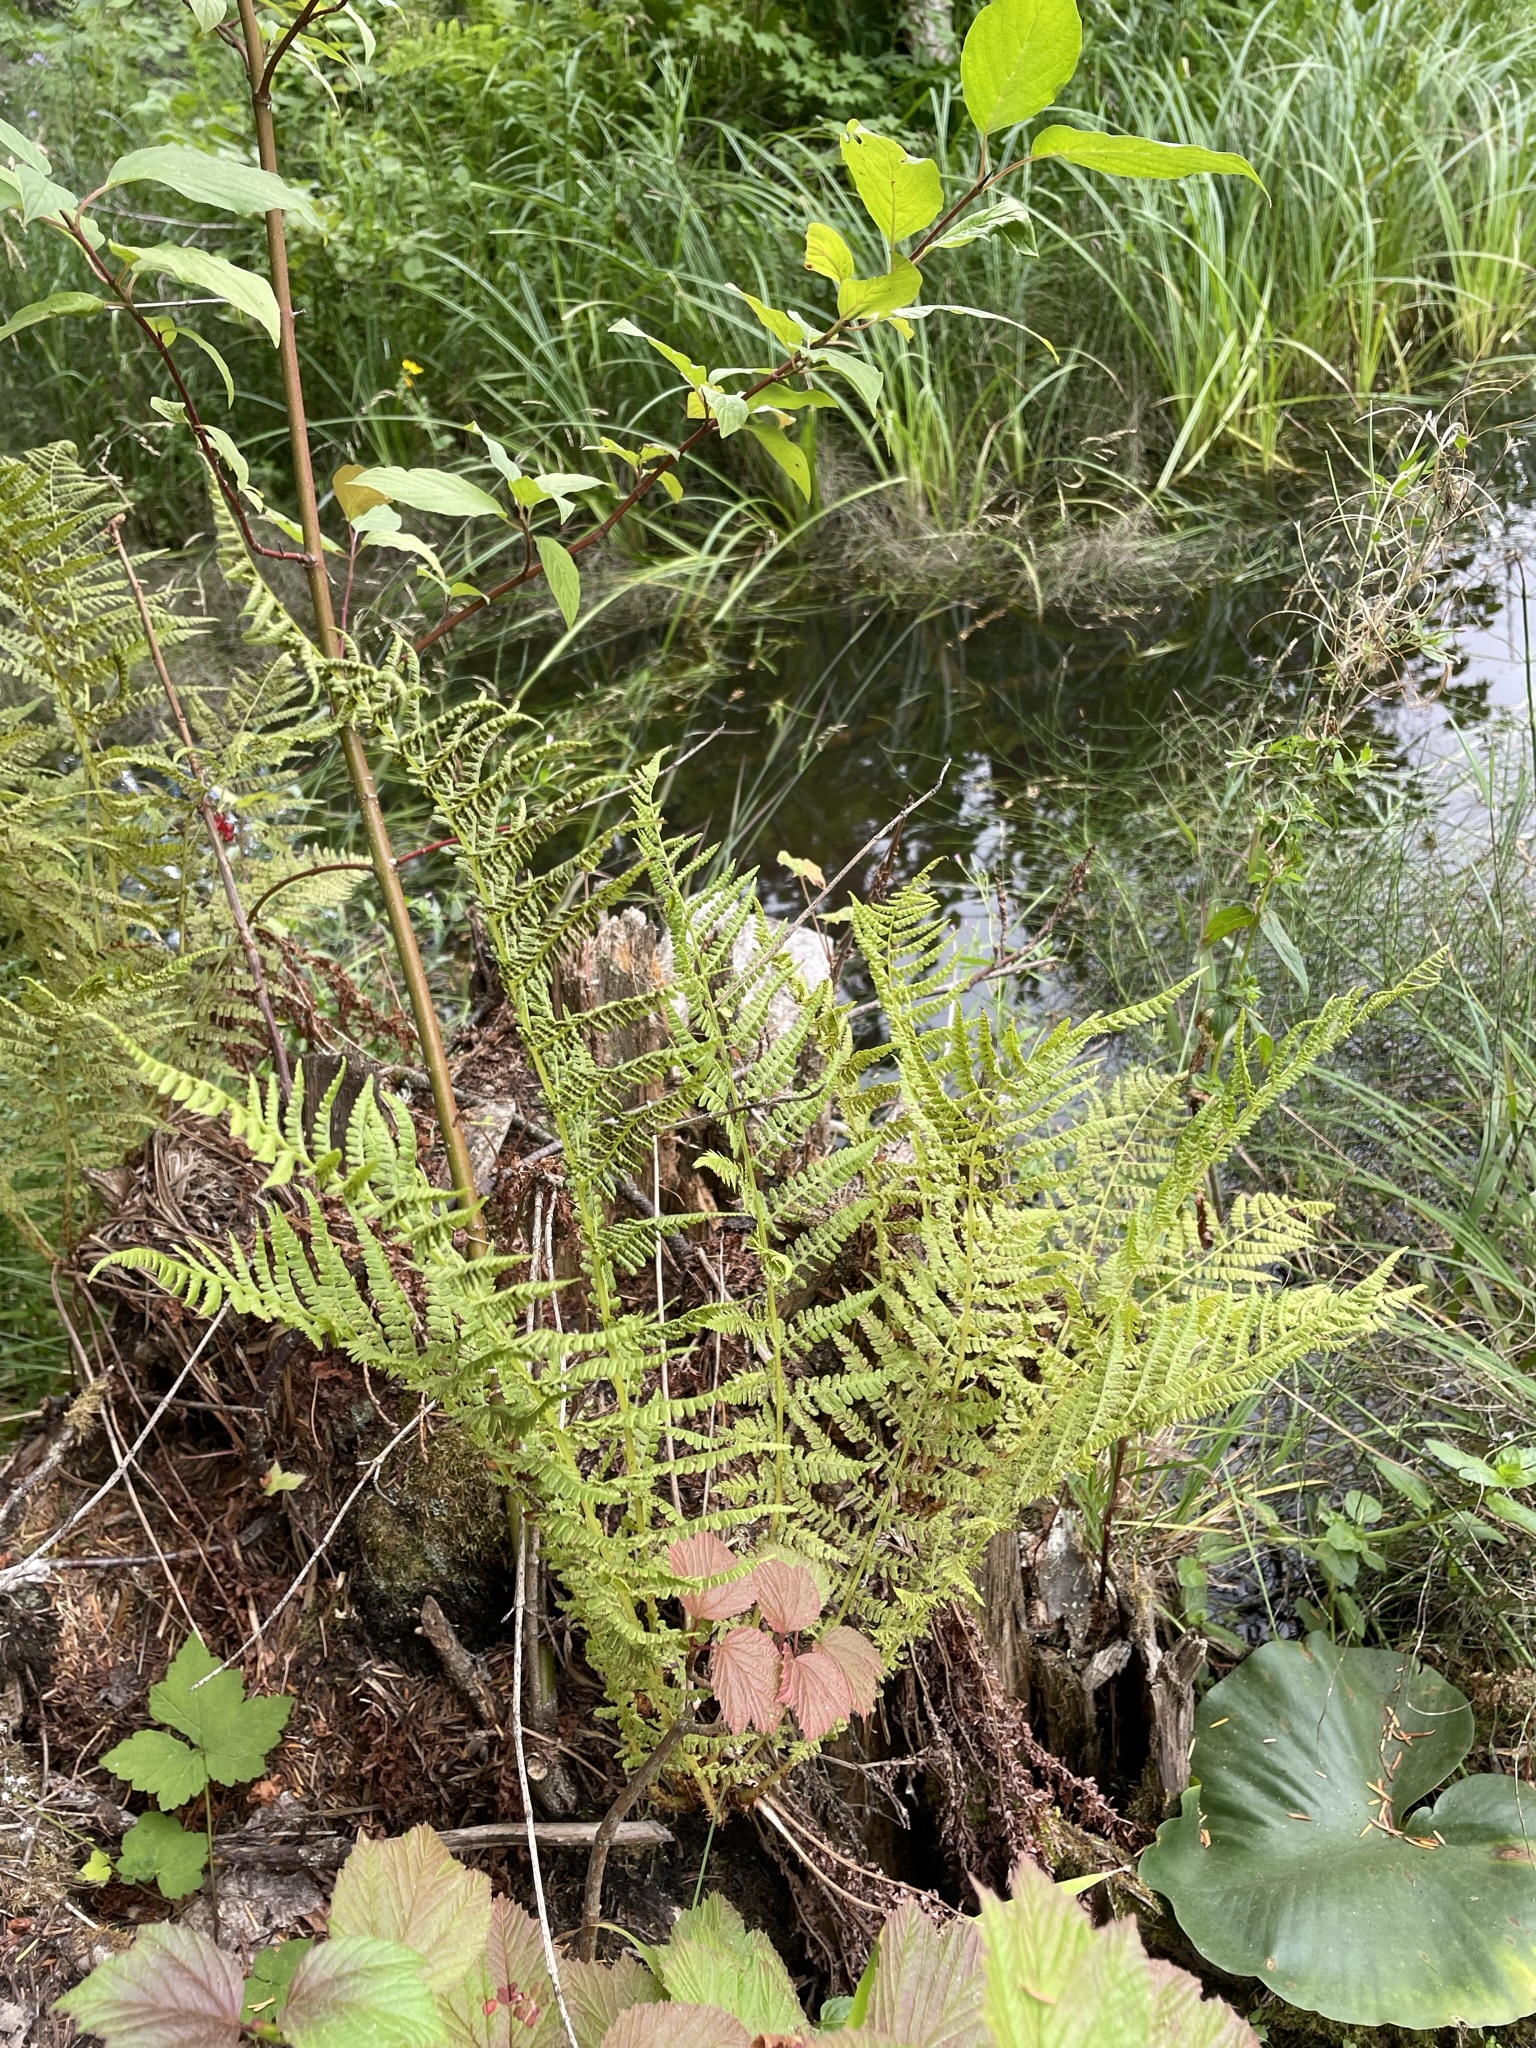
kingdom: Plantae
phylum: Tracheophyta
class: Polypodiopsida
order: Polypodiales
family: Athyriaceae
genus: Athyrium
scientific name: Athyrium cyclosorum
